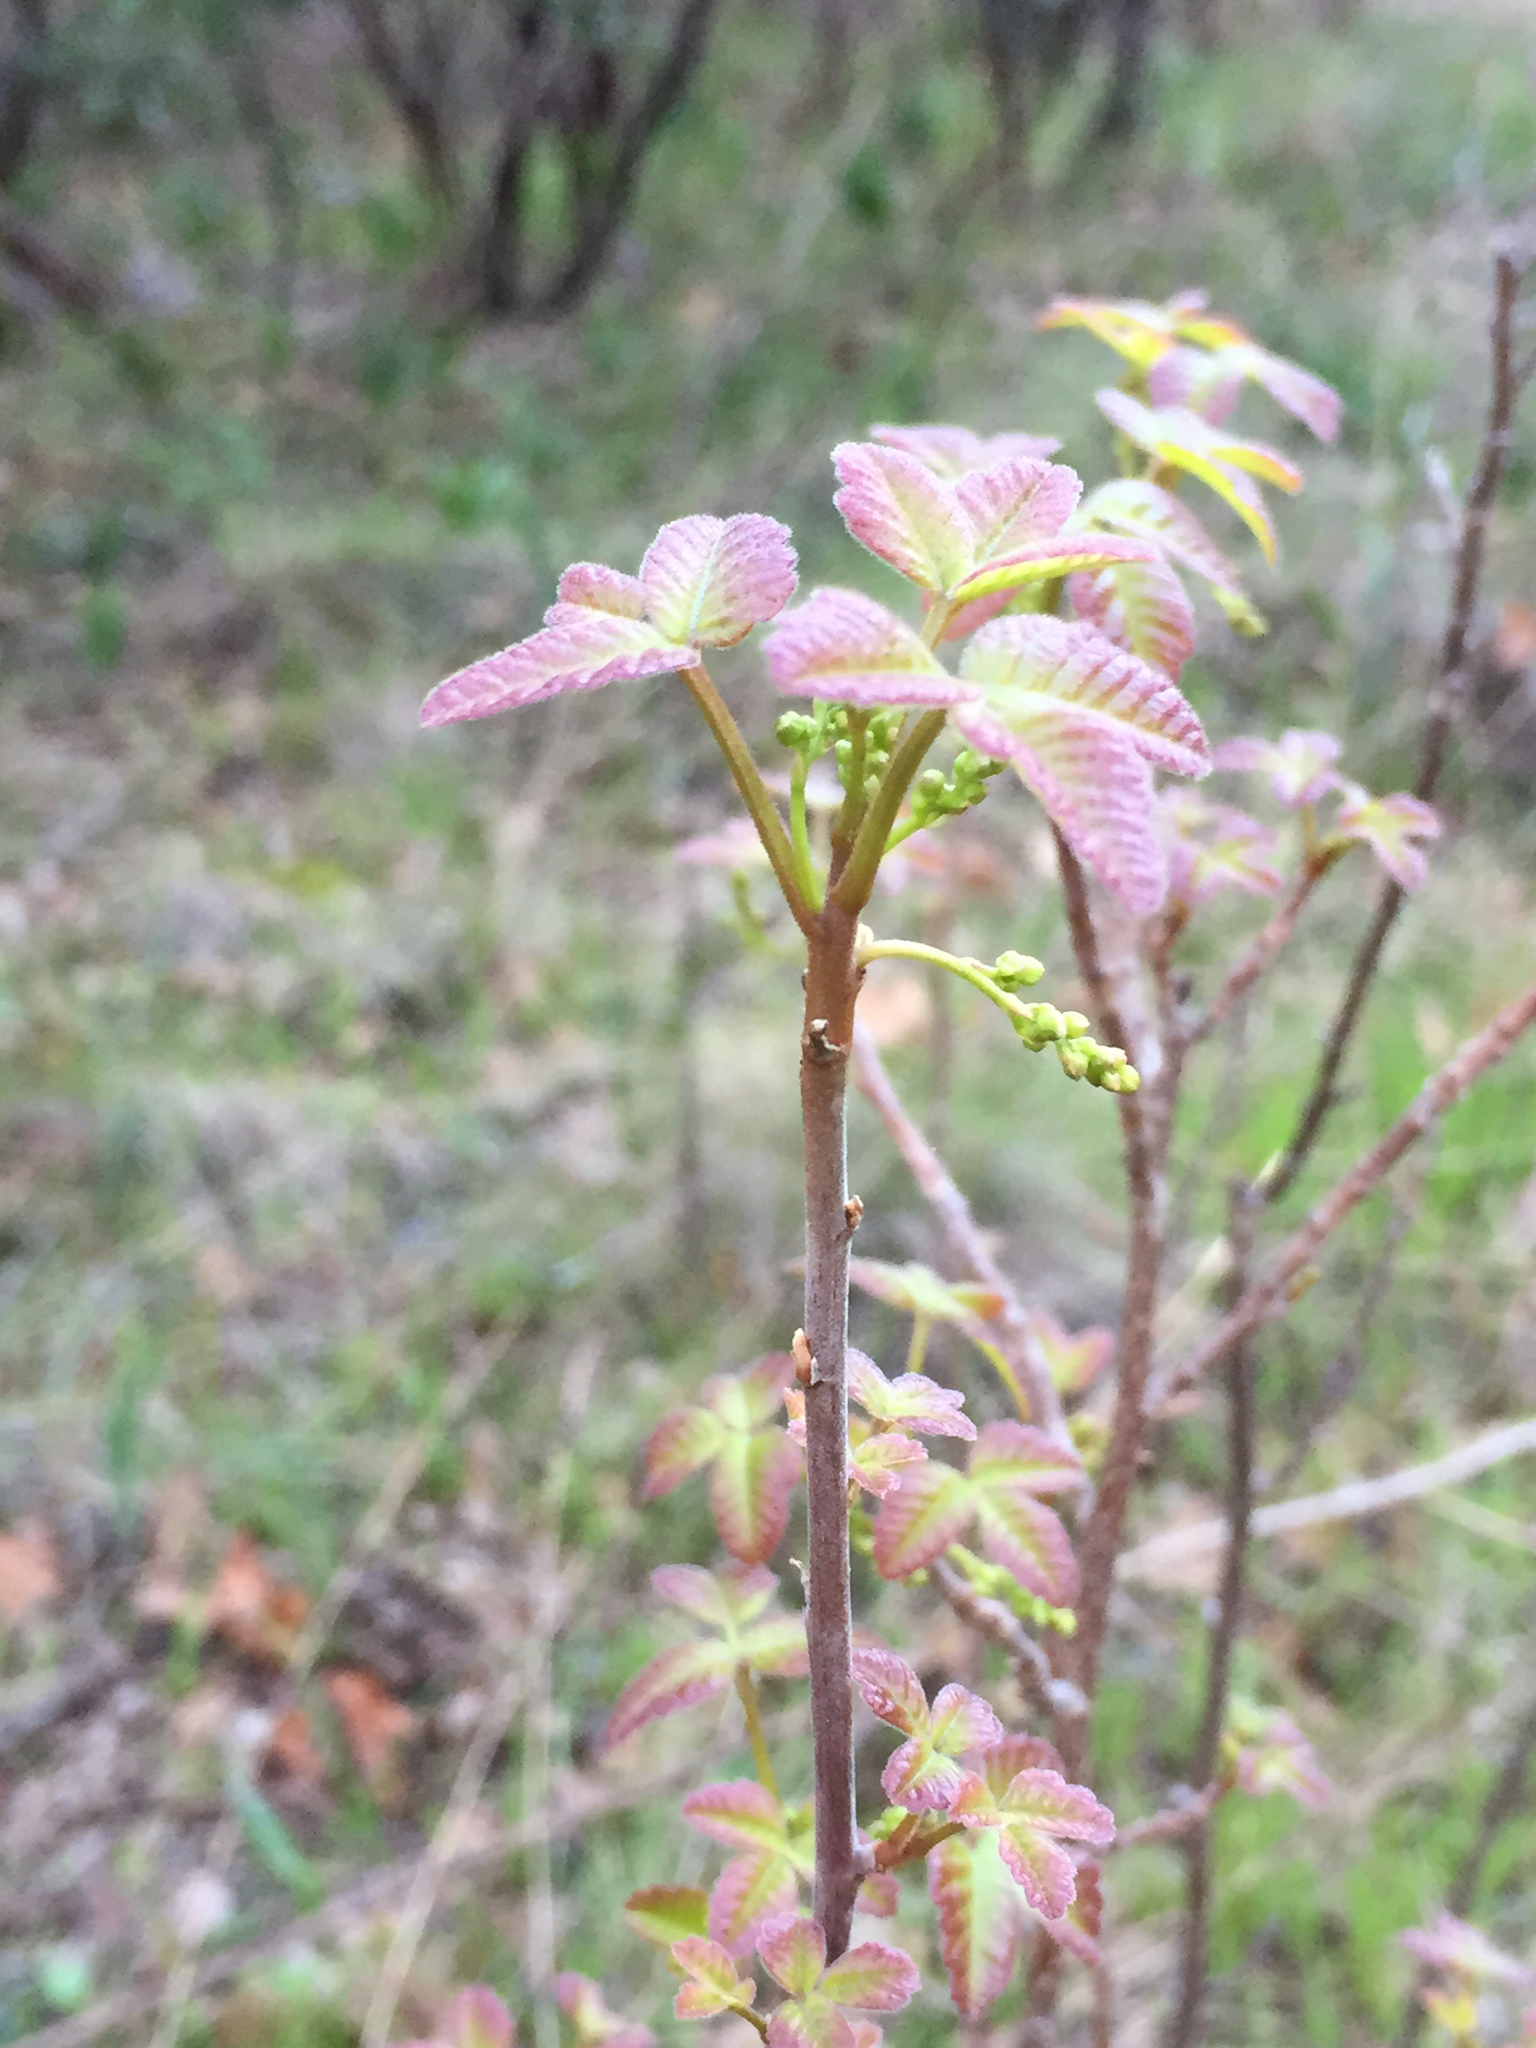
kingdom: Plantae
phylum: Tracheophyta
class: Magnoliopsida
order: Sapindales
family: Anacardiaceae
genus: Toxicodendron
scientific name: Toxicodendron diversilobum
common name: Pacific poison-oak
